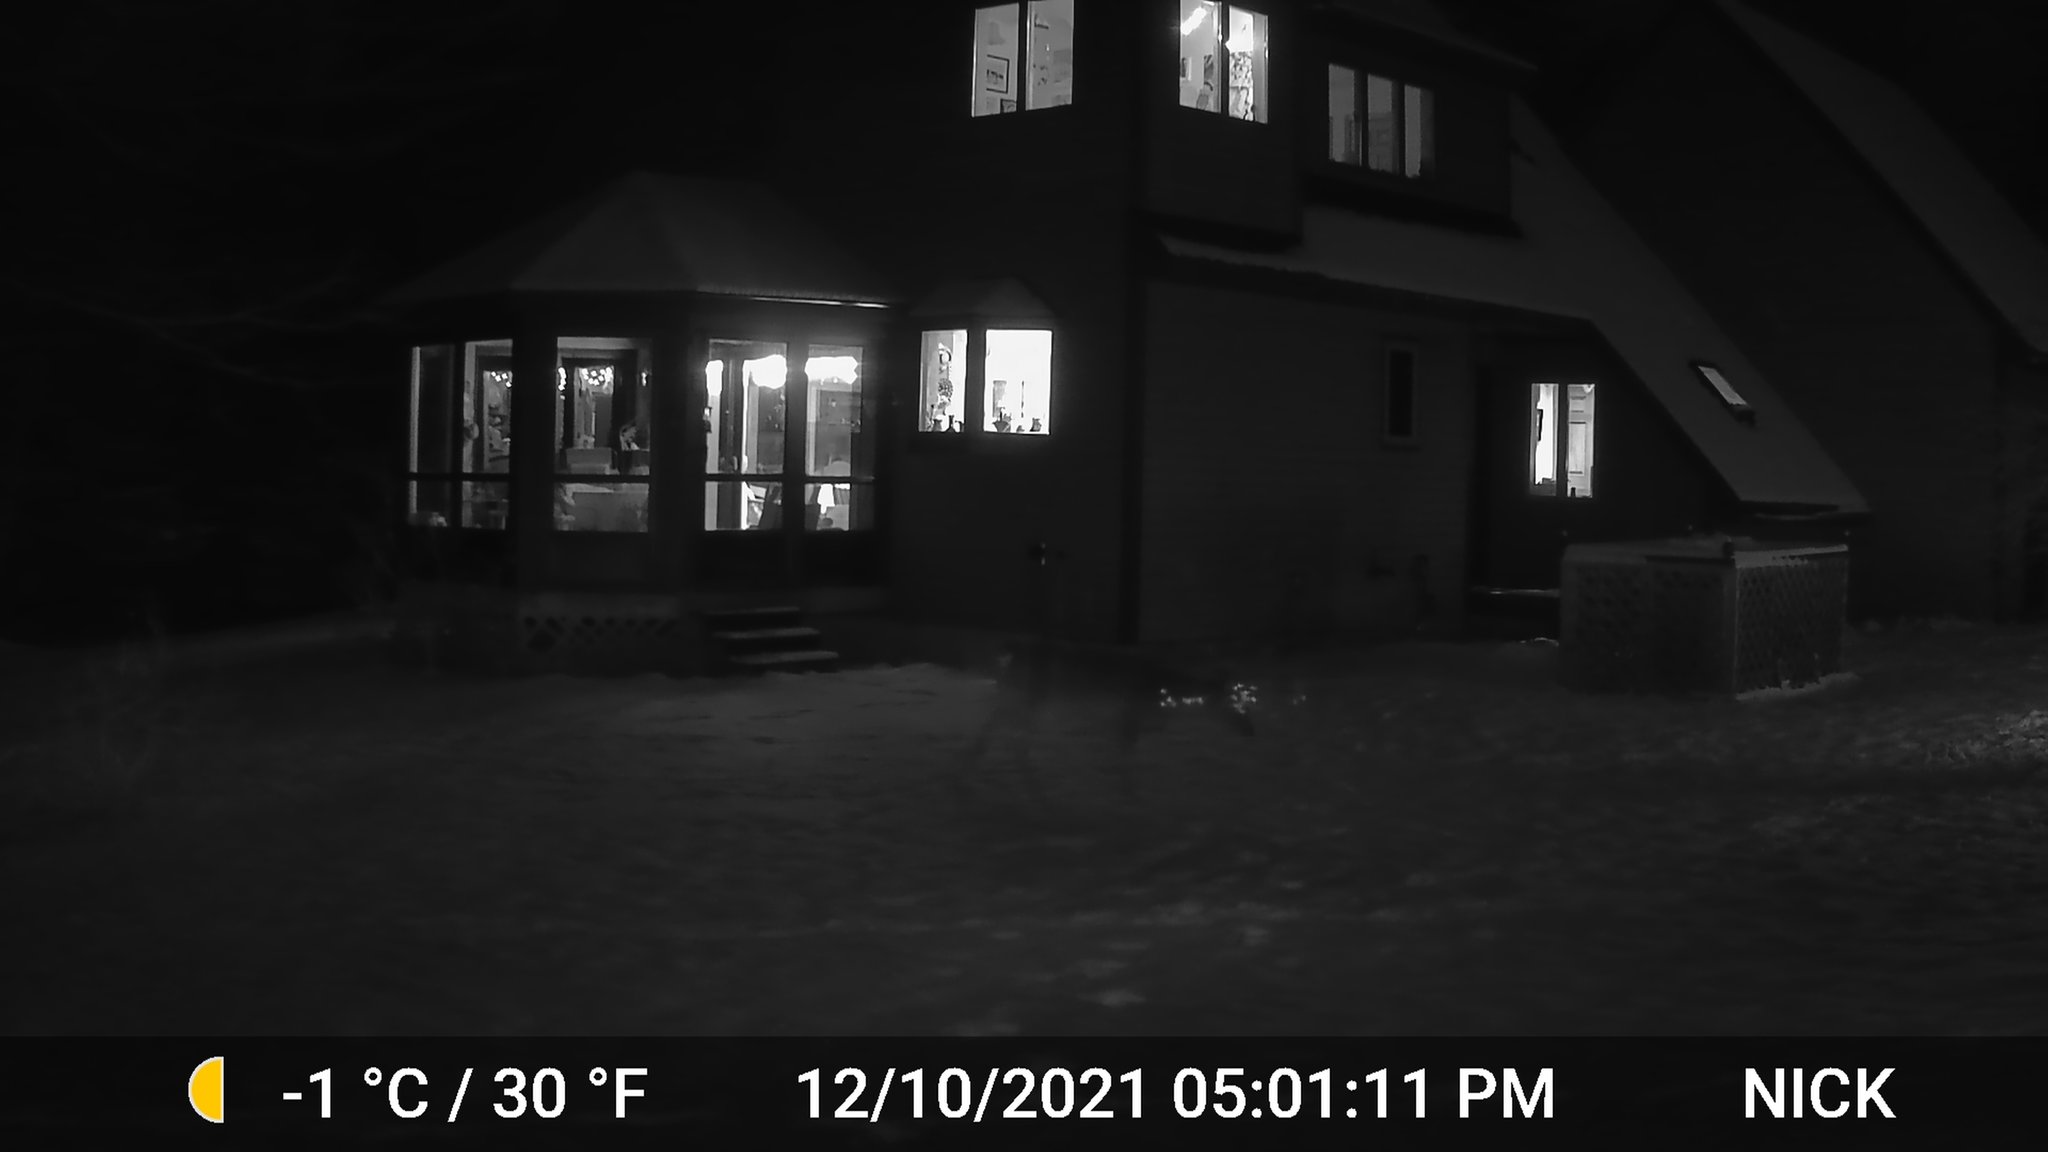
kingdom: Animalia
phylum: Chordata
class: Mammalia
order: Artiodactyla
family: Cervidae
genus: Odocoileus
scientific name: Odocoileus virginianus
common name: White-tailed deer
